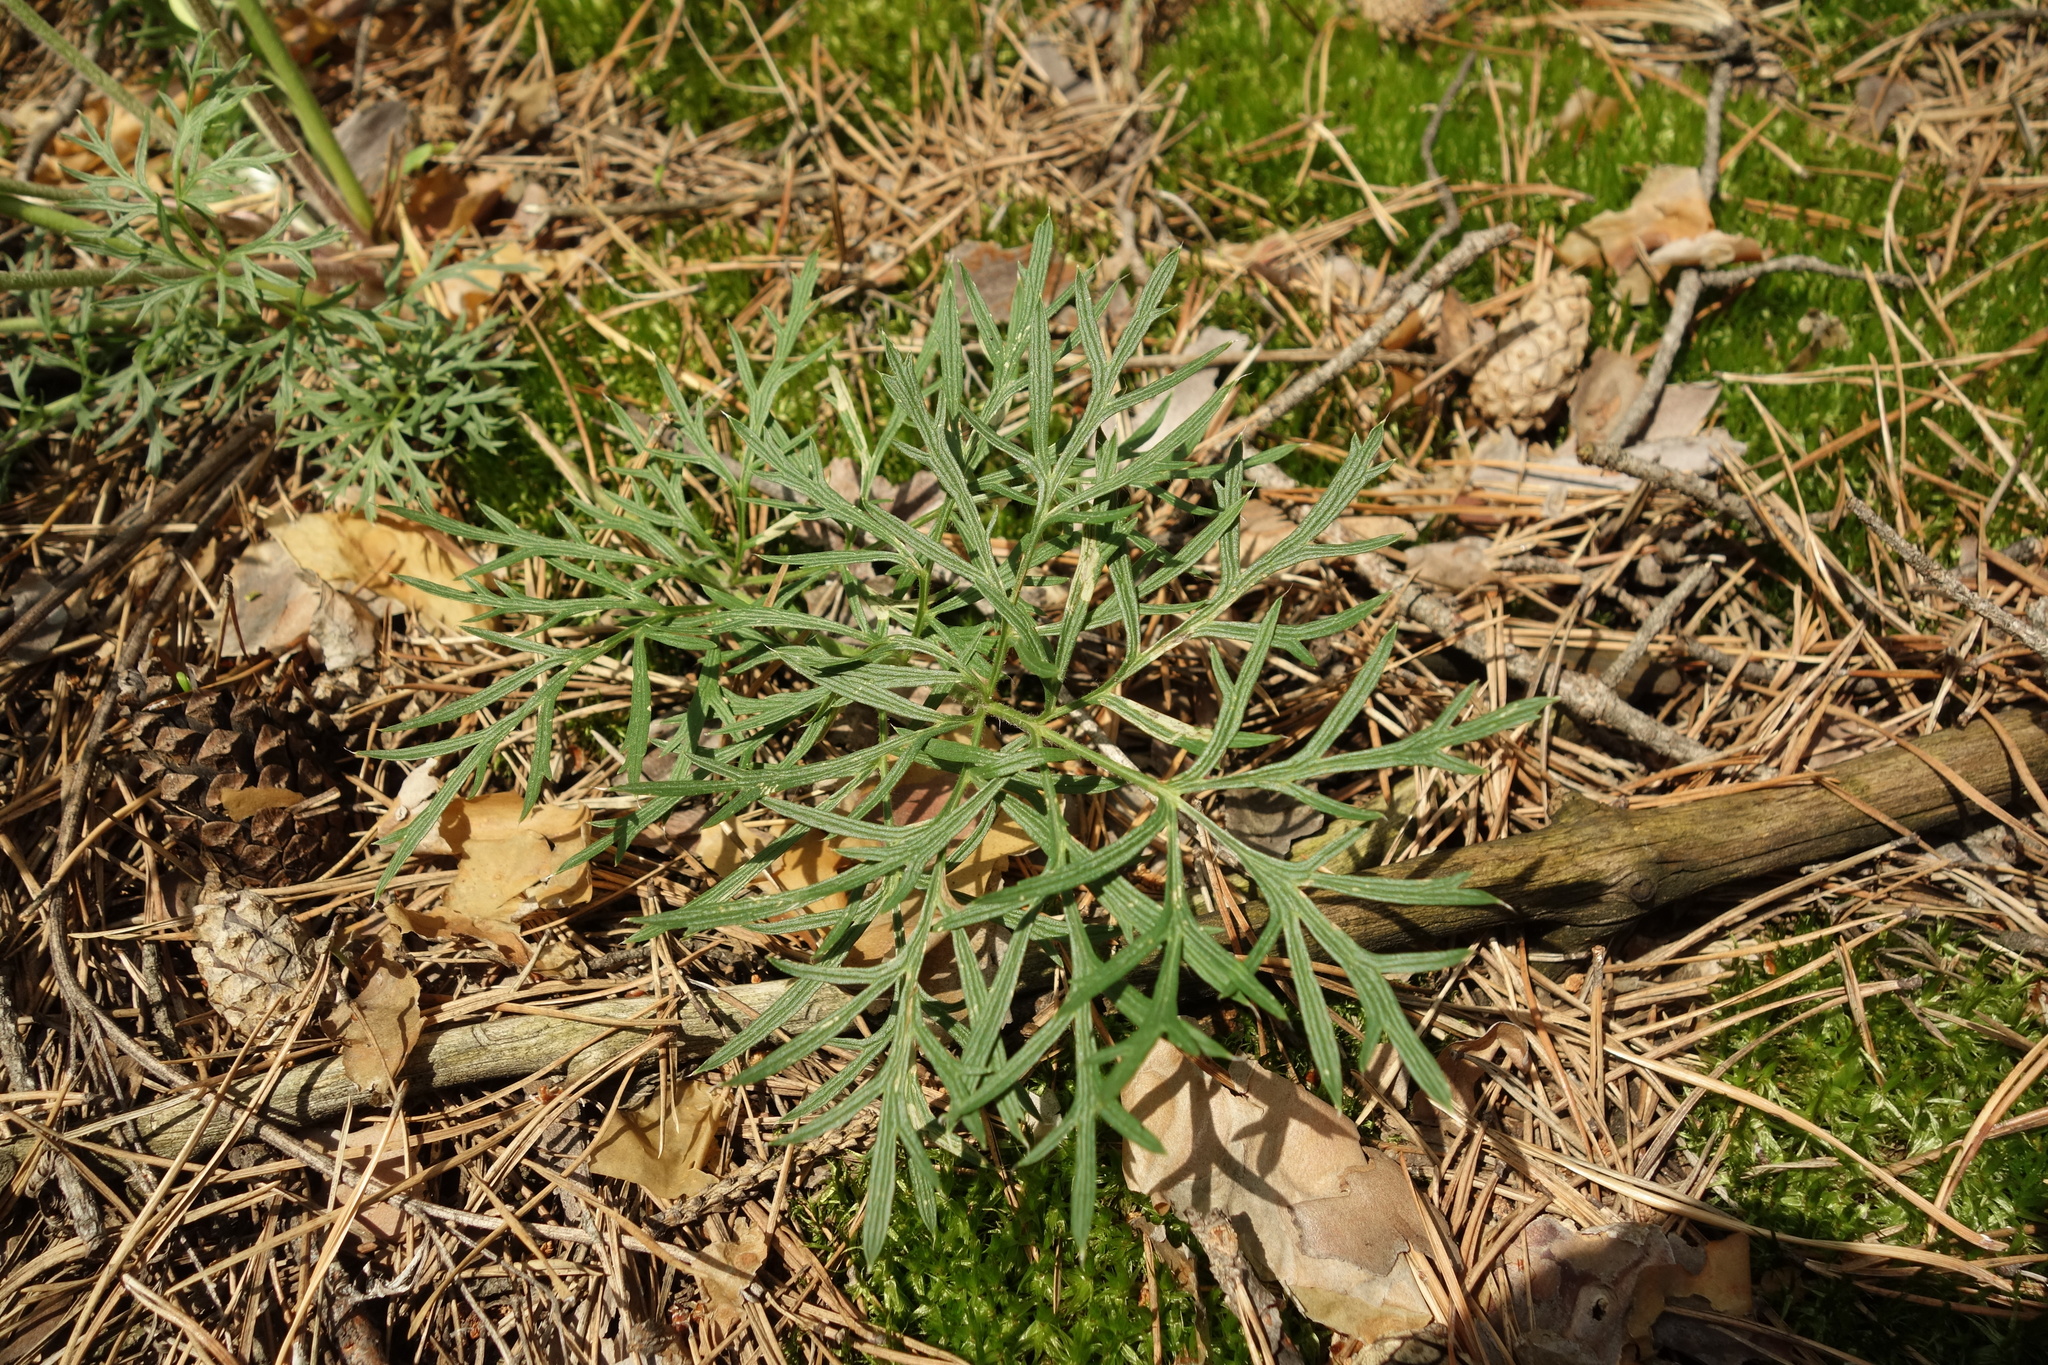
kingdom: Plantae
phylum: Tracheophyta
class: Magnoliopsida
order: Ranunculales
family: Ranunculaceae
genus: Pulsatilla
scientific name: Pulsatilla pratensis
